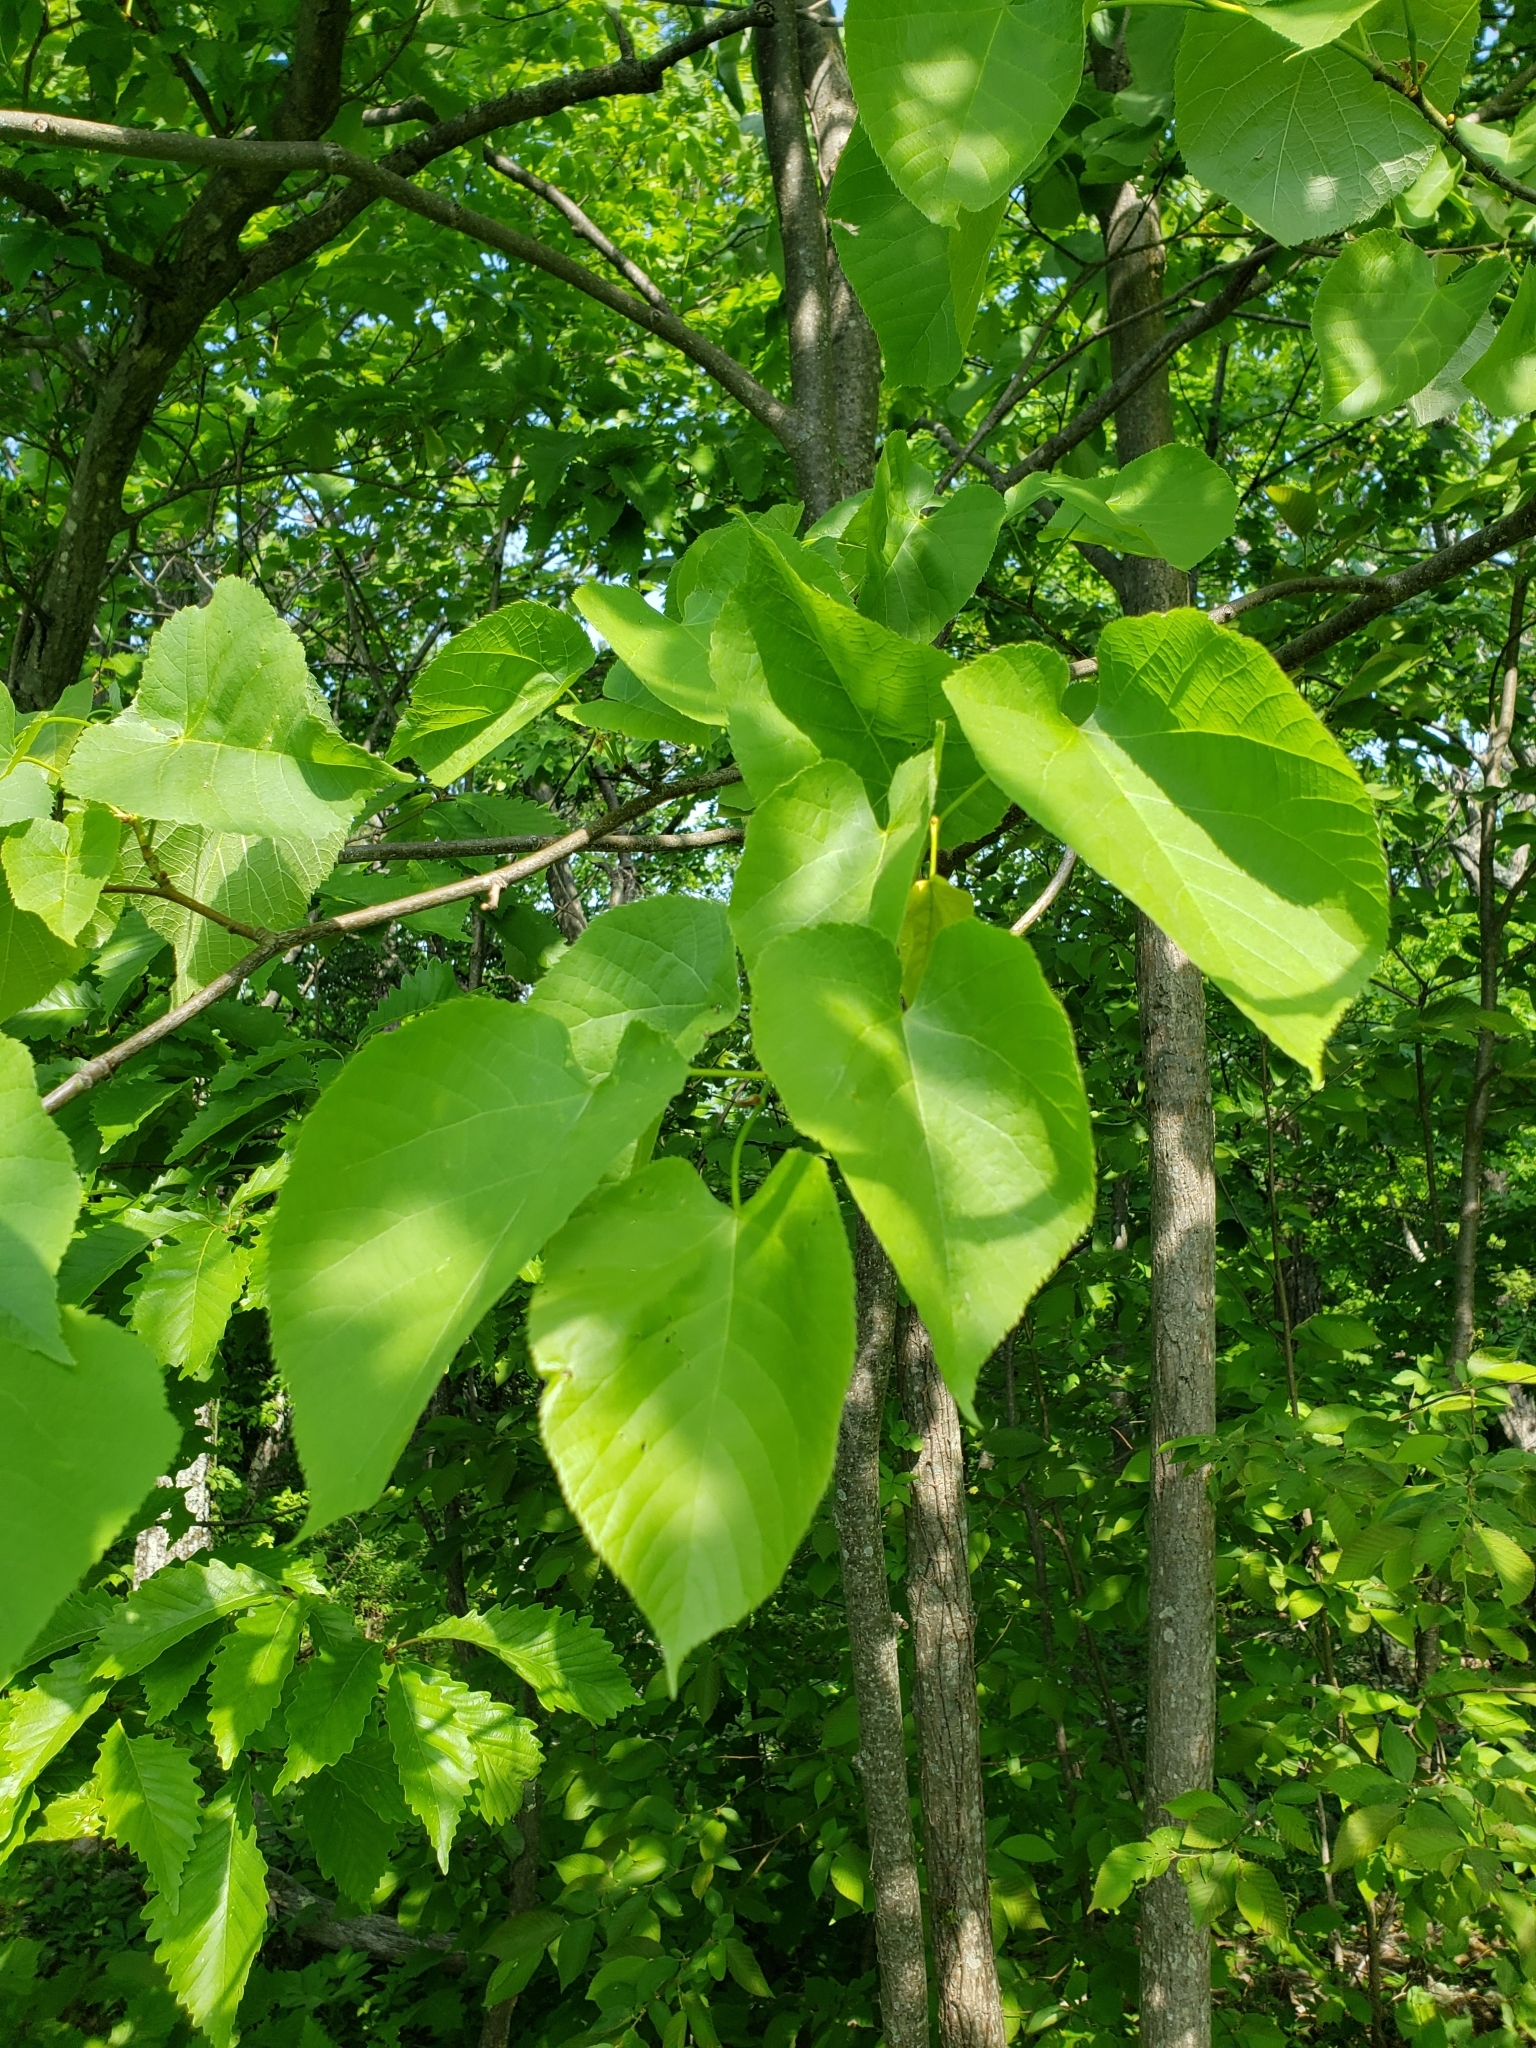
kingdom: Plantae
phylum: Tracheophyta
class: Magnoliopsida
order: Malvales
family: Malvaceae
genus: Tilia
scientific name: Tilia americana
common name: Basswood
